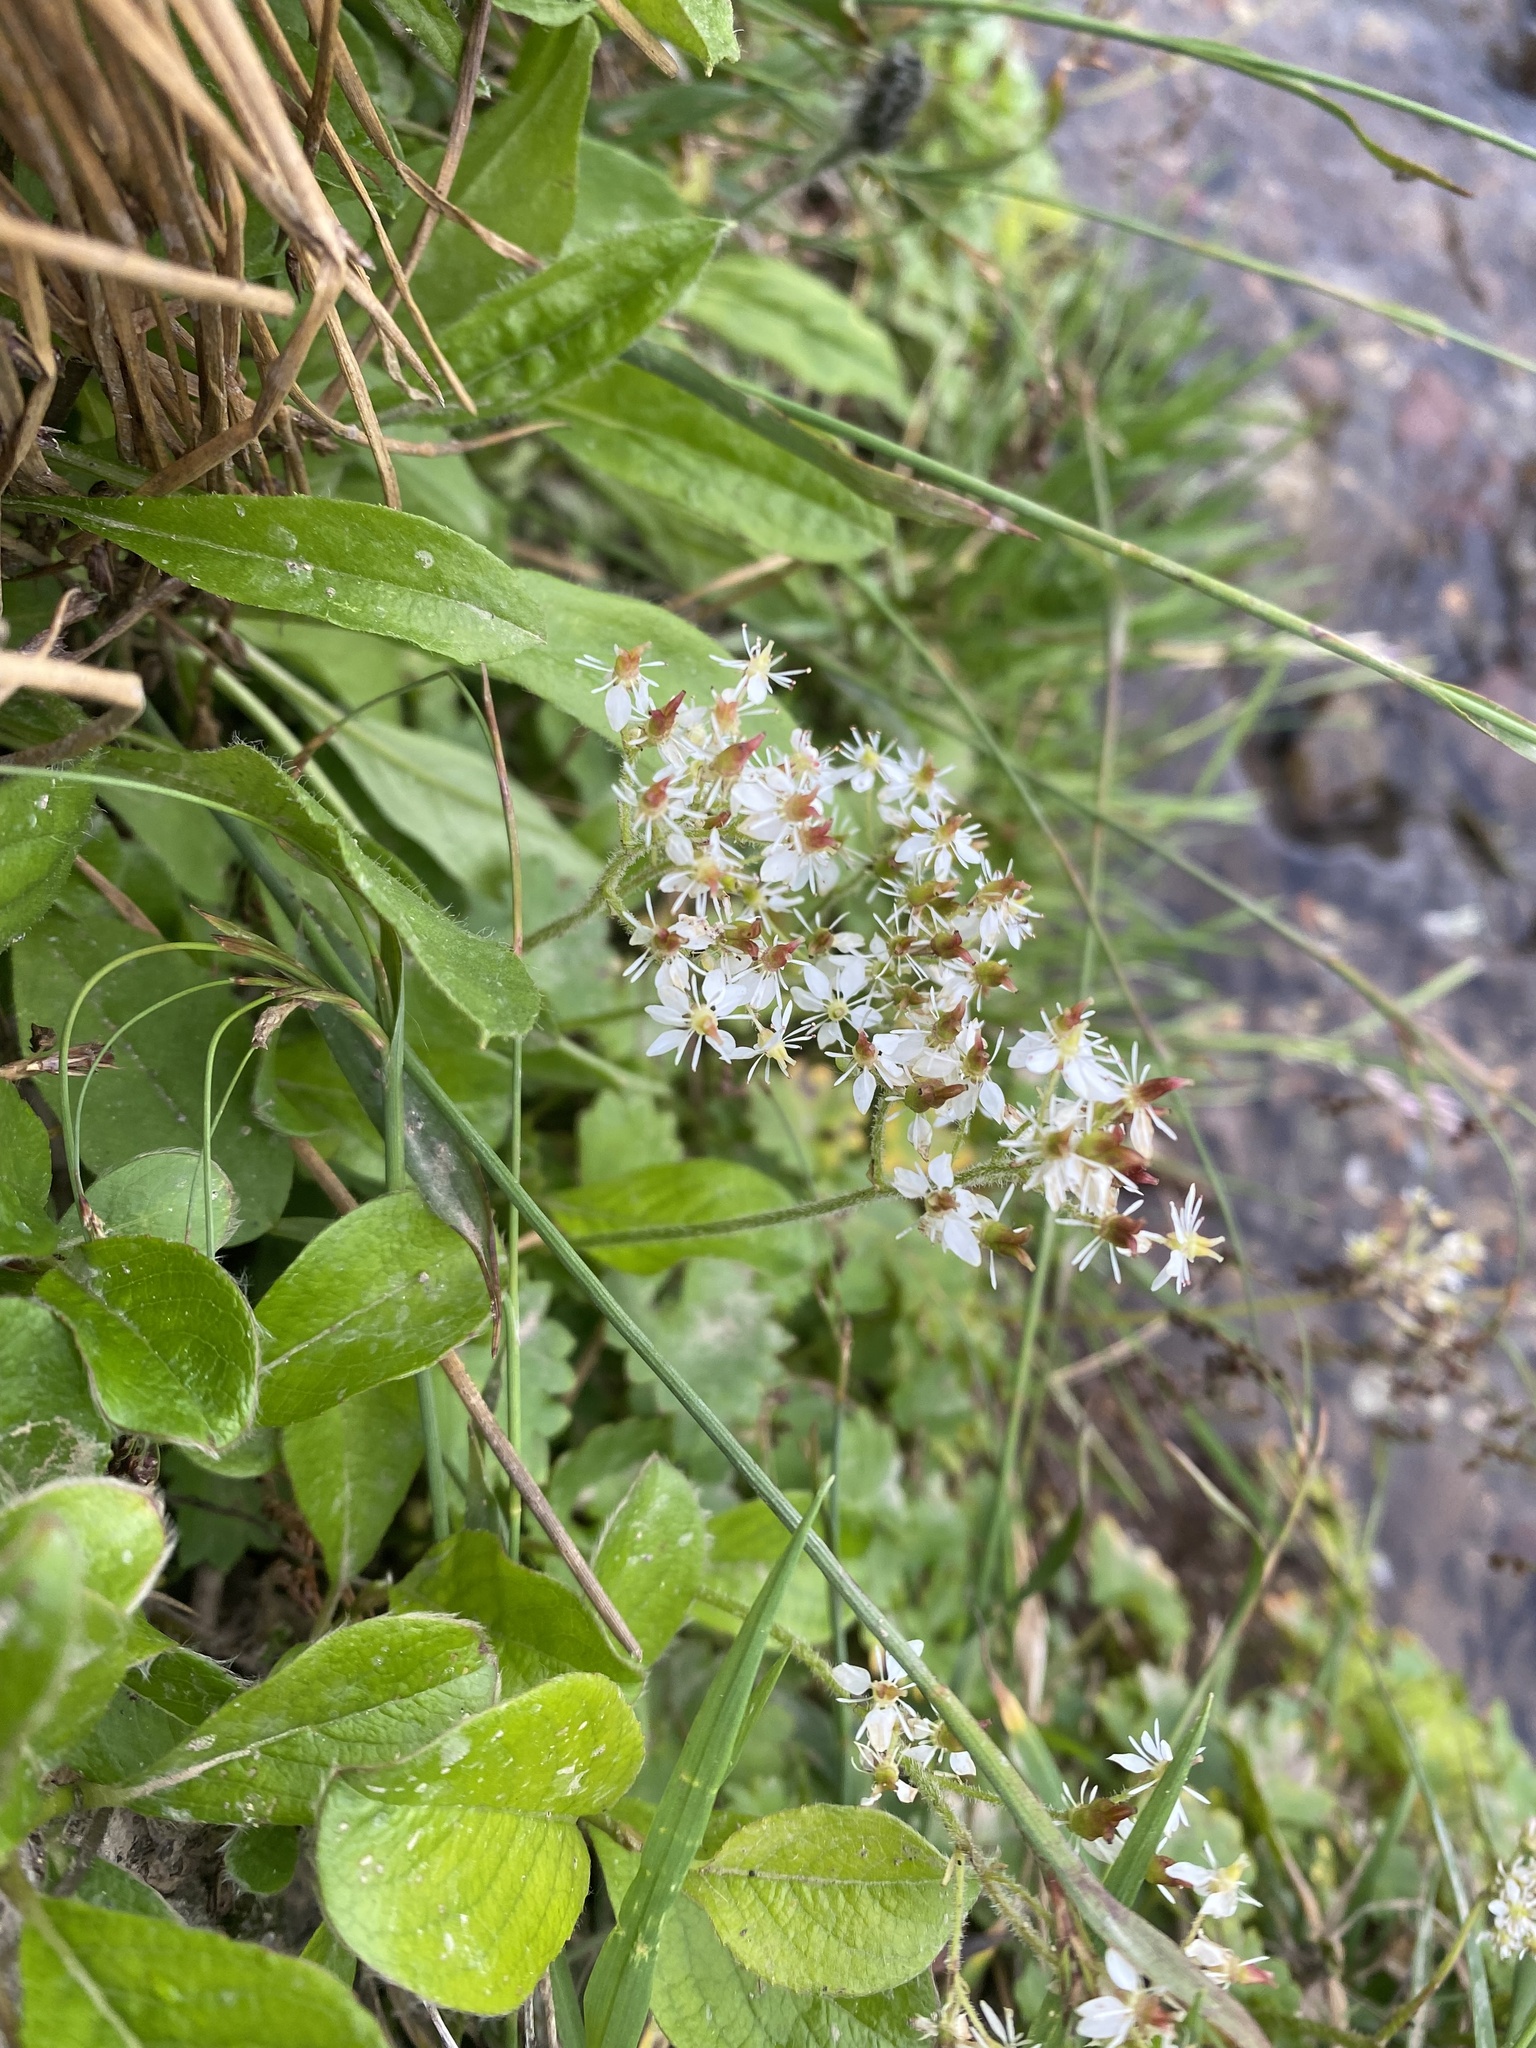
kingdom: Plantae
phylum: Tracheophyta
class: Magnoliopsida
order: Saxifragales
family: Saxifragaceae
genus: Micranthes
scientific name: Micranthes nelsoniana
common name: Nelson's saxifrage
